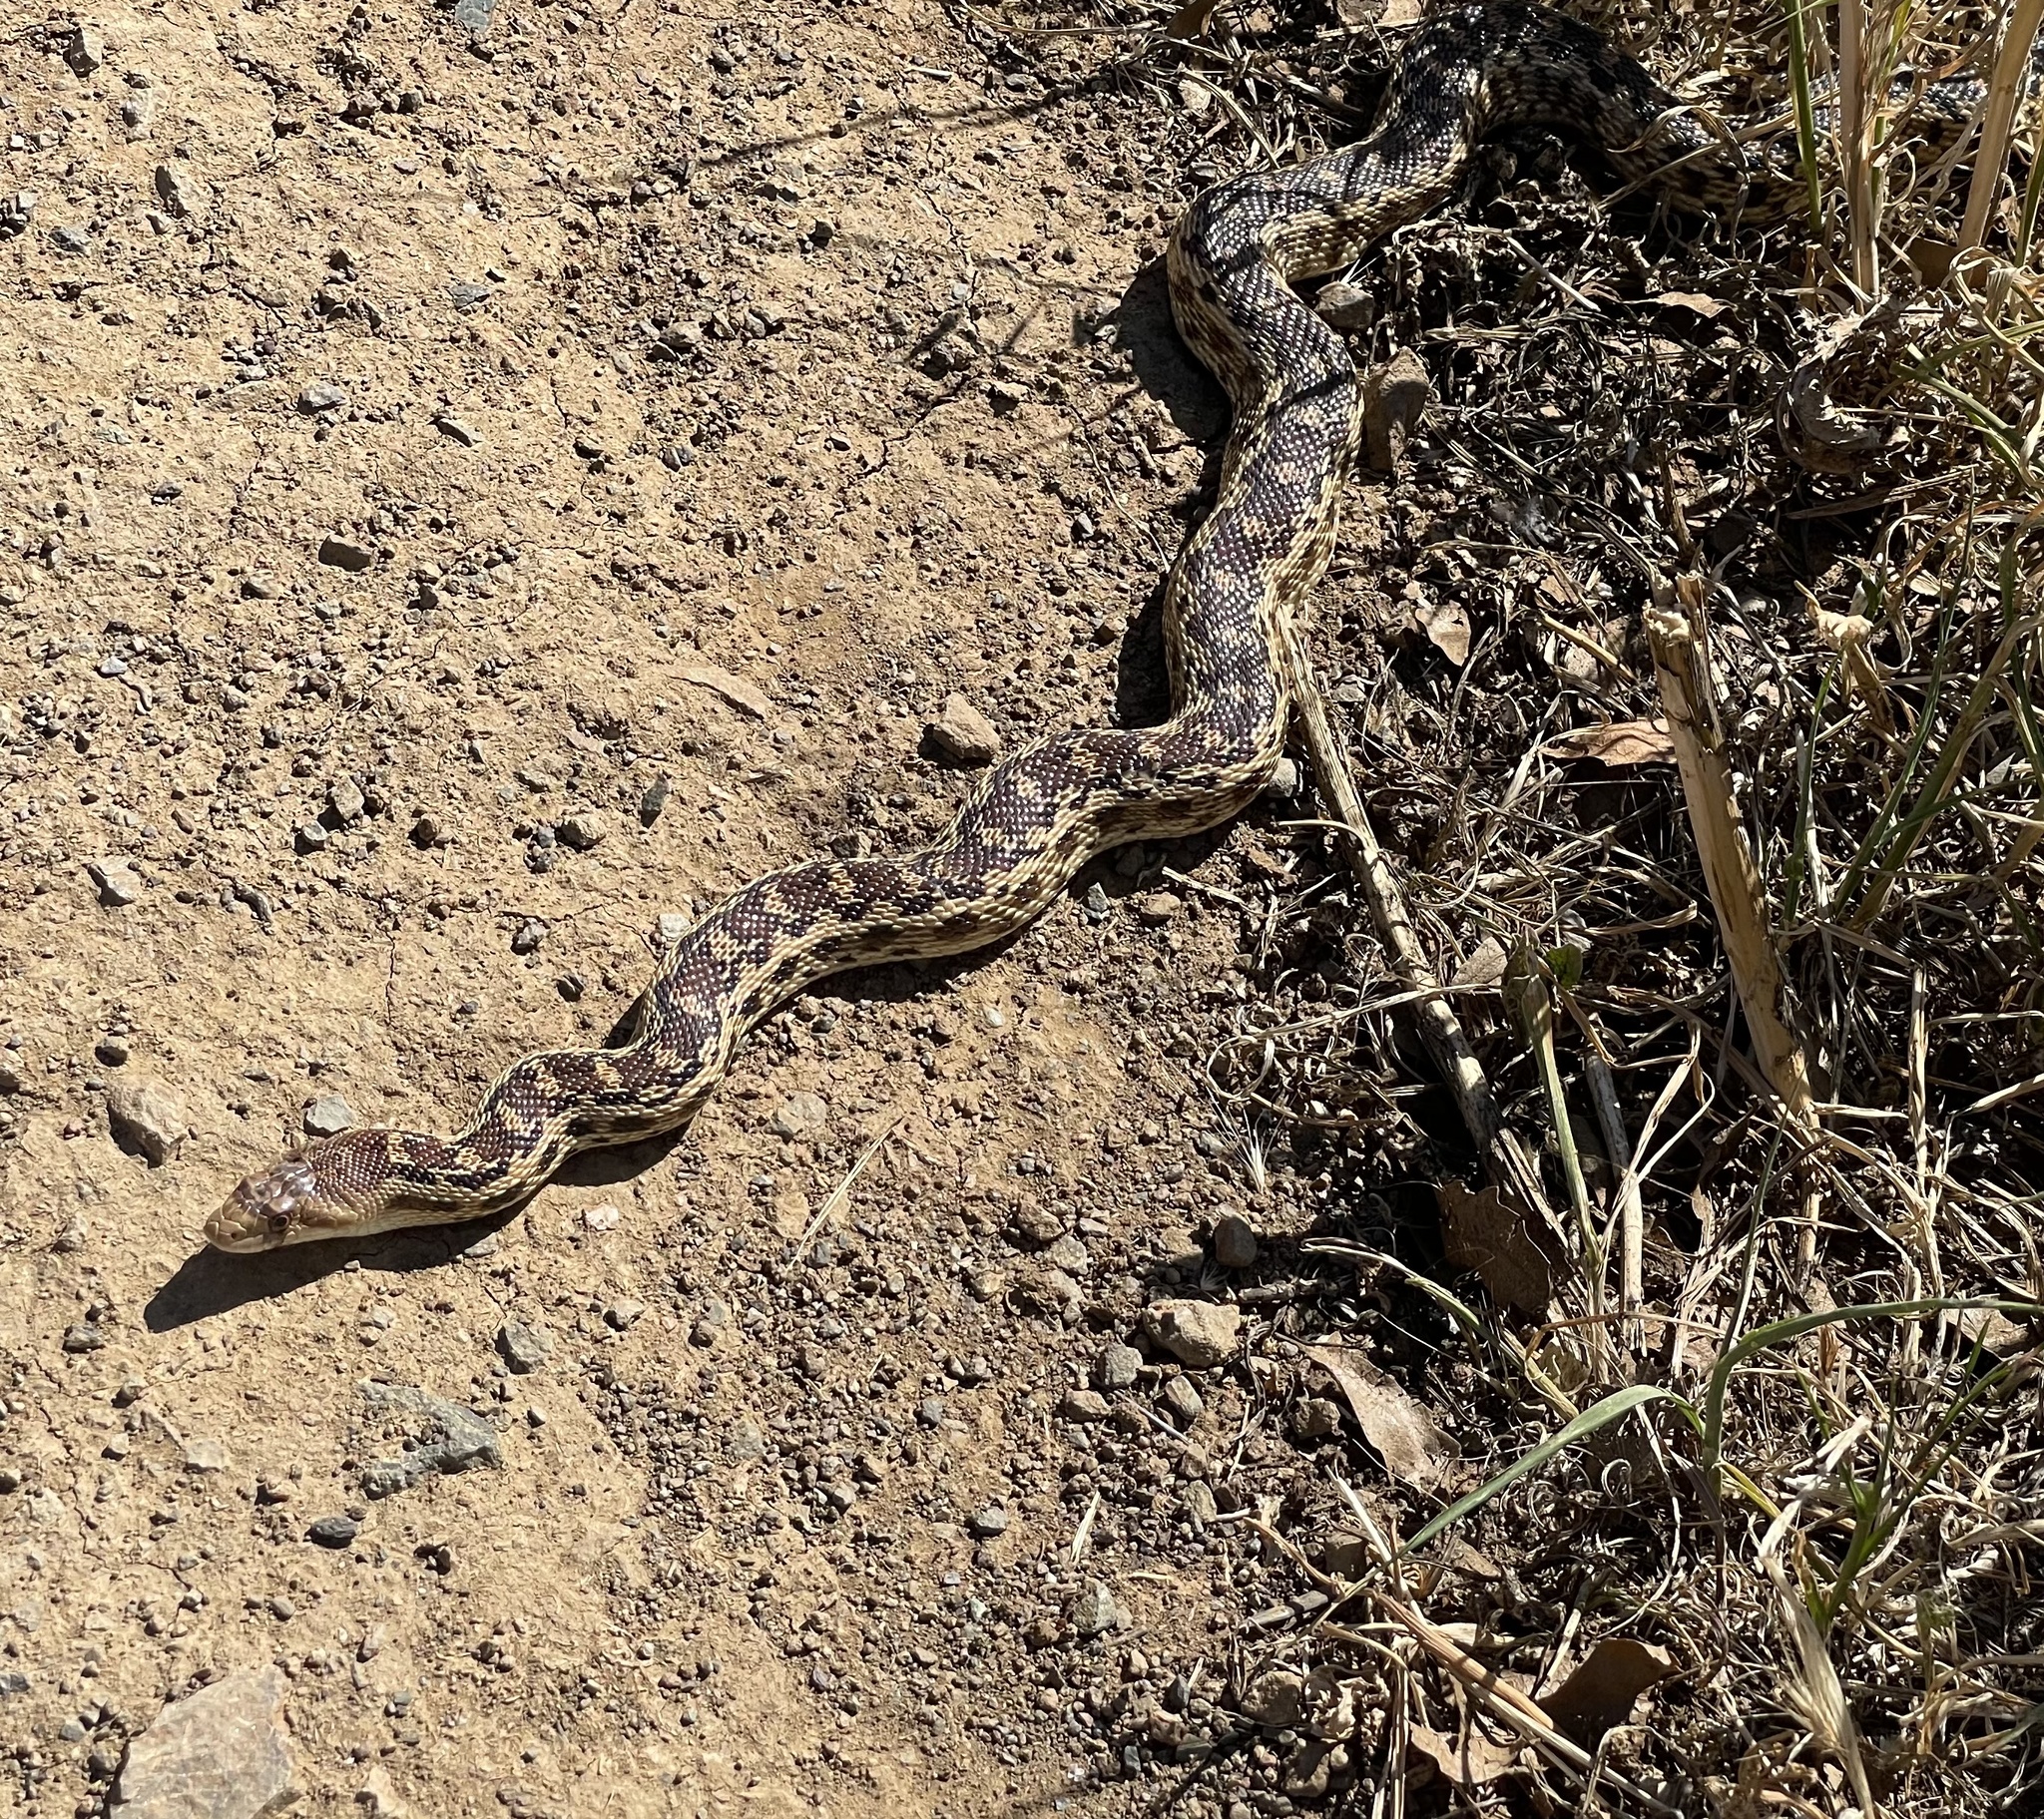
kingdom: Animalia
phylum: Chordata
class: Squamata
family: Colubridae
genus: Pituophis
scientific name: Pituophis catenifer
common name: Gopher snake
